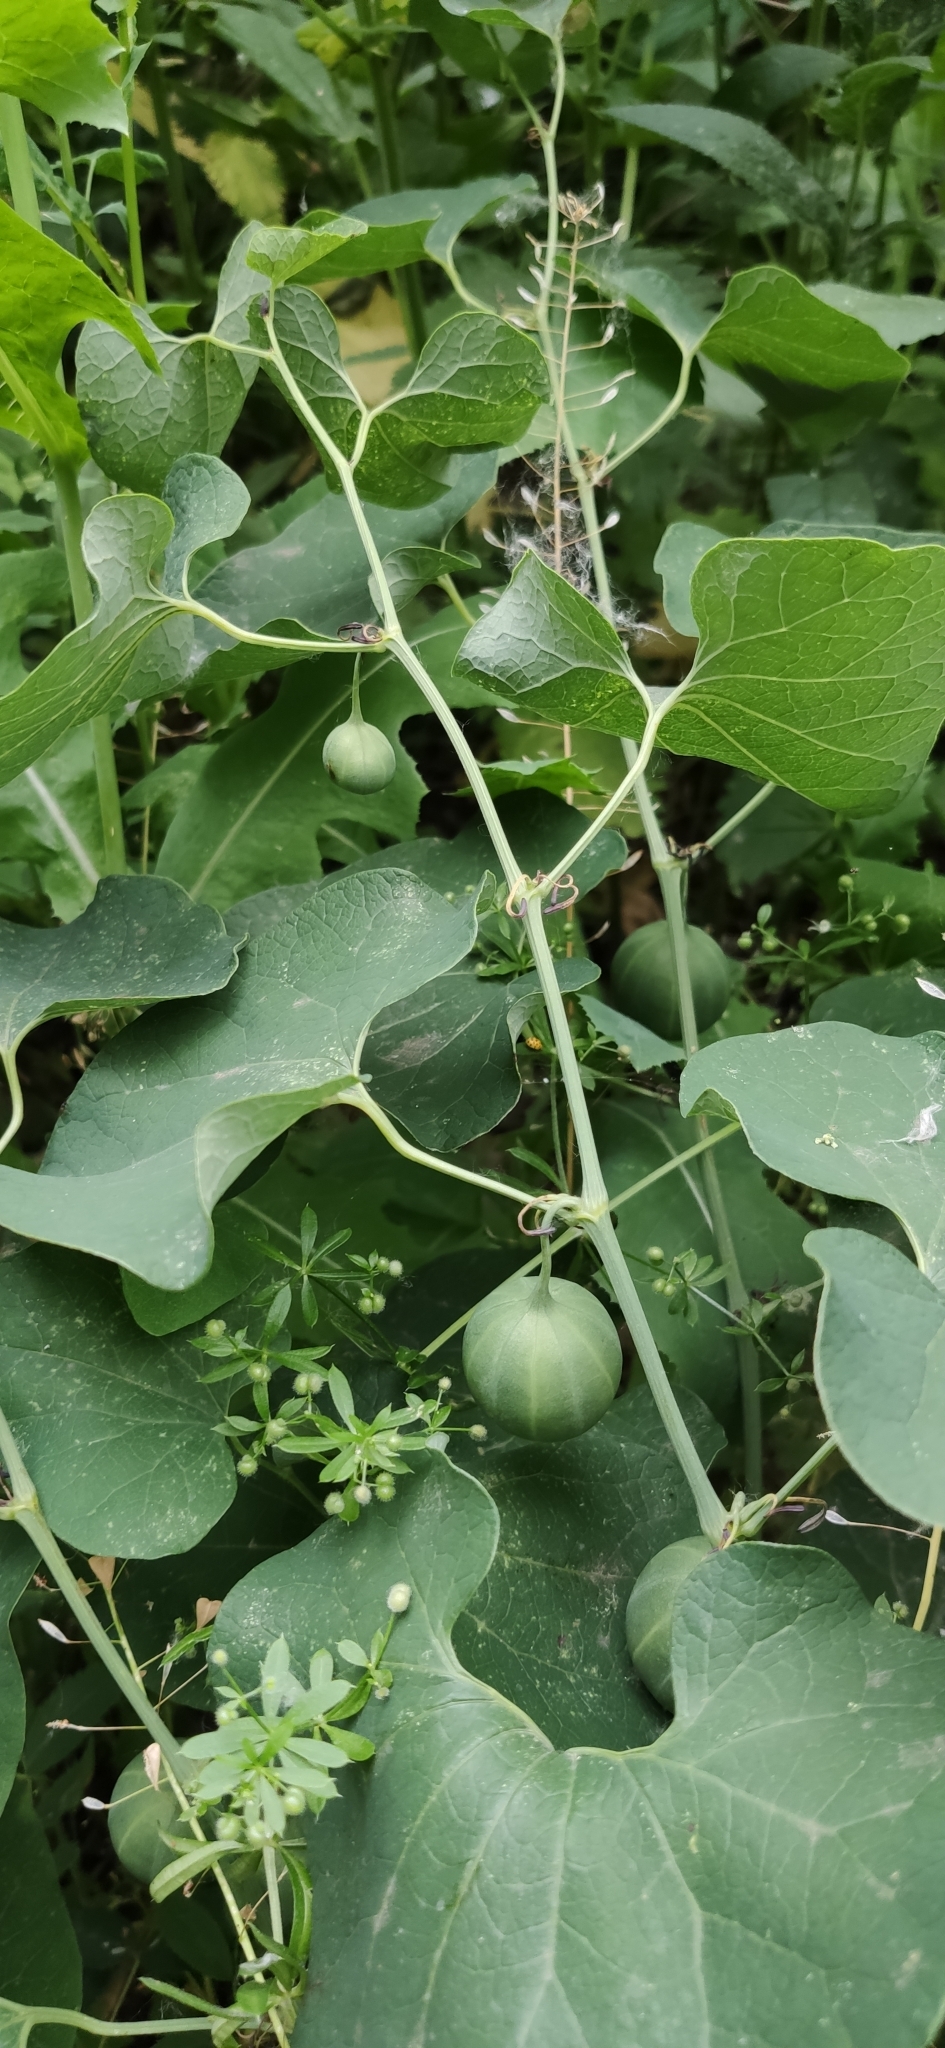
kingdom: Plantae
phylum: Tracheophyta
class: Magnoliopsida
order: Piperales
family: Aristolochiaceae
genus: Aristolochia
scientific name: Aristolochia clematitis
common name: Birthwort
